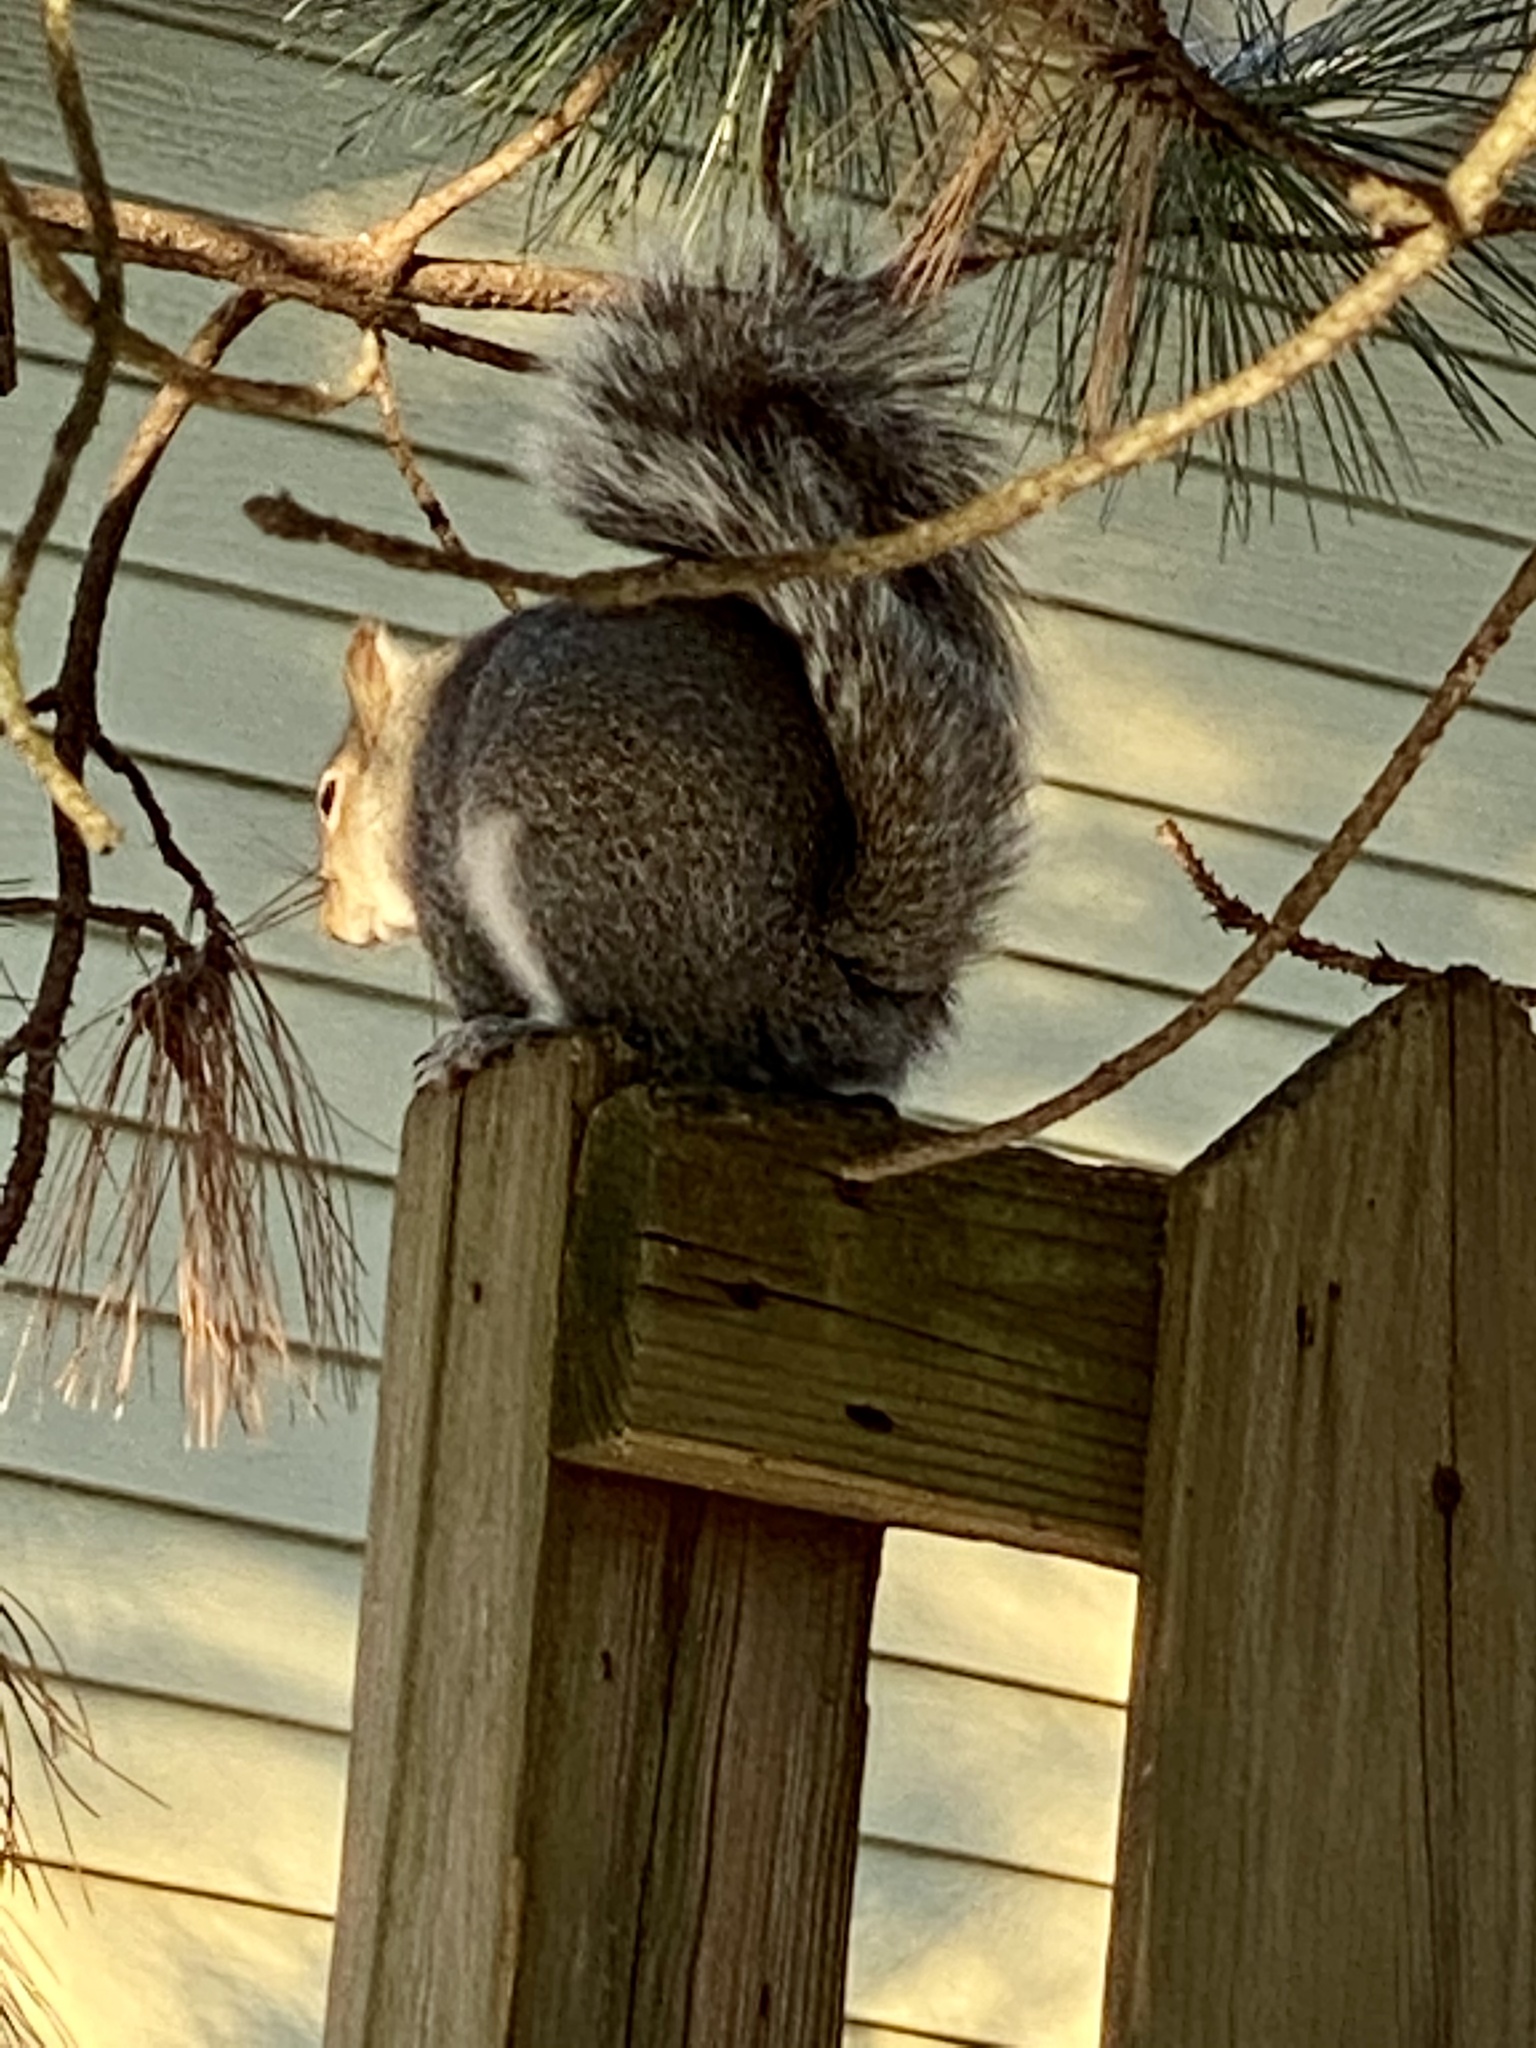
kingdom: Animalia
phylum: Chordata
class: Mammalia
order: Rodentia
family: Sciuridae
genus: Sciurus
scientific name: Sciurus carolinensis
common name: Eastern gray squirrel
